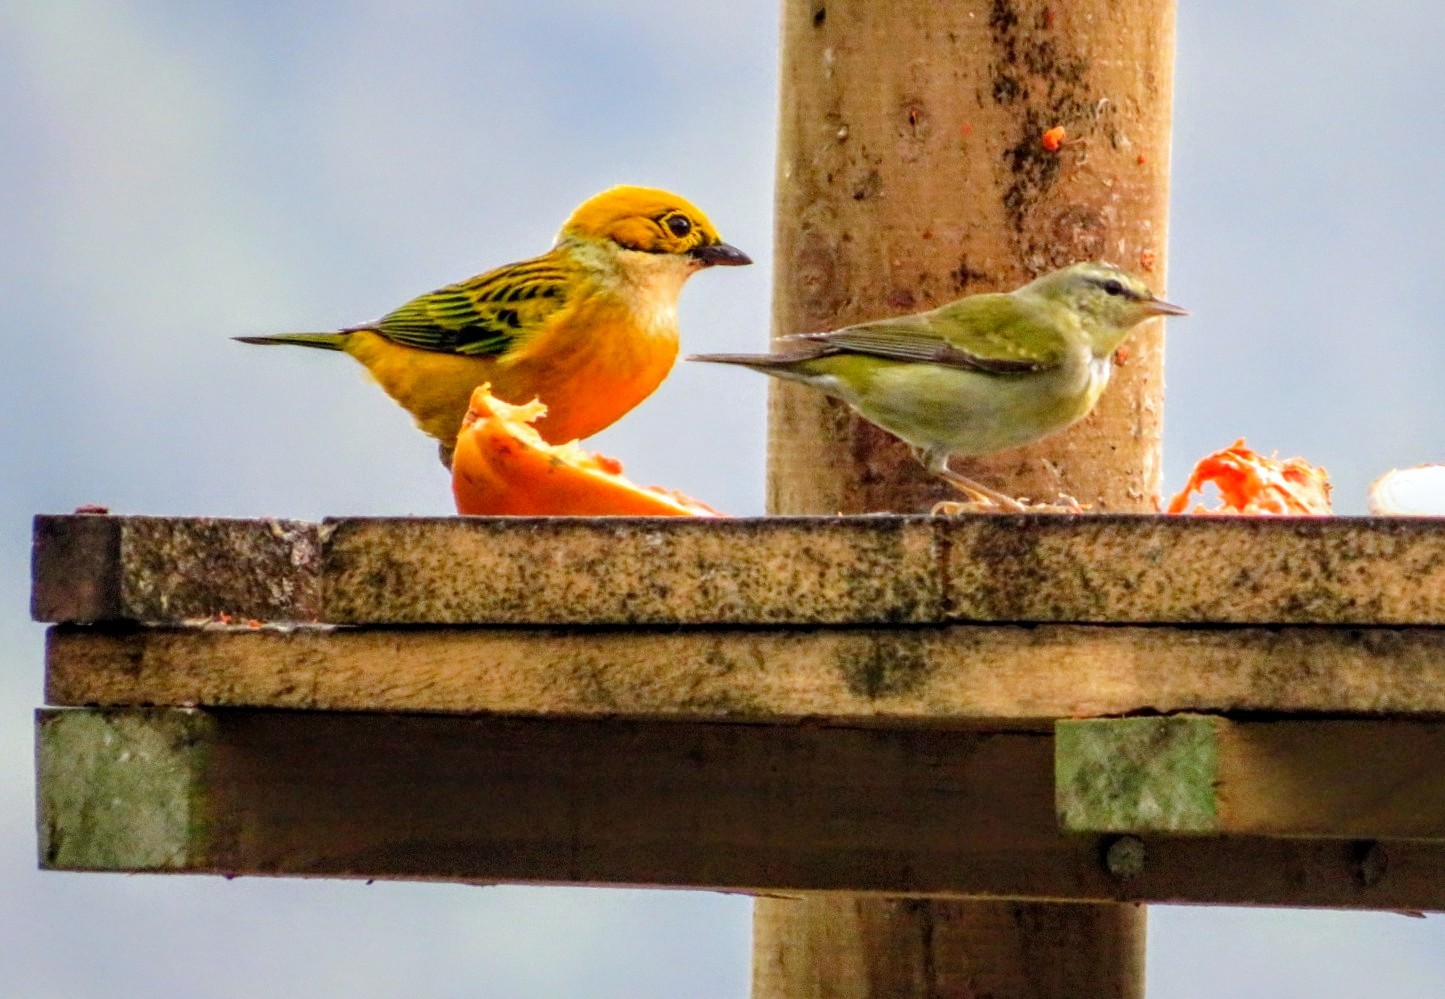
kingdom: Animalia
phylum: Chordata
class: Aves
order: Passeriformes
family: Thraupidae
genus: Tangara
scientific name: Tangara icterocephala
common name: Silver-throated tanager
